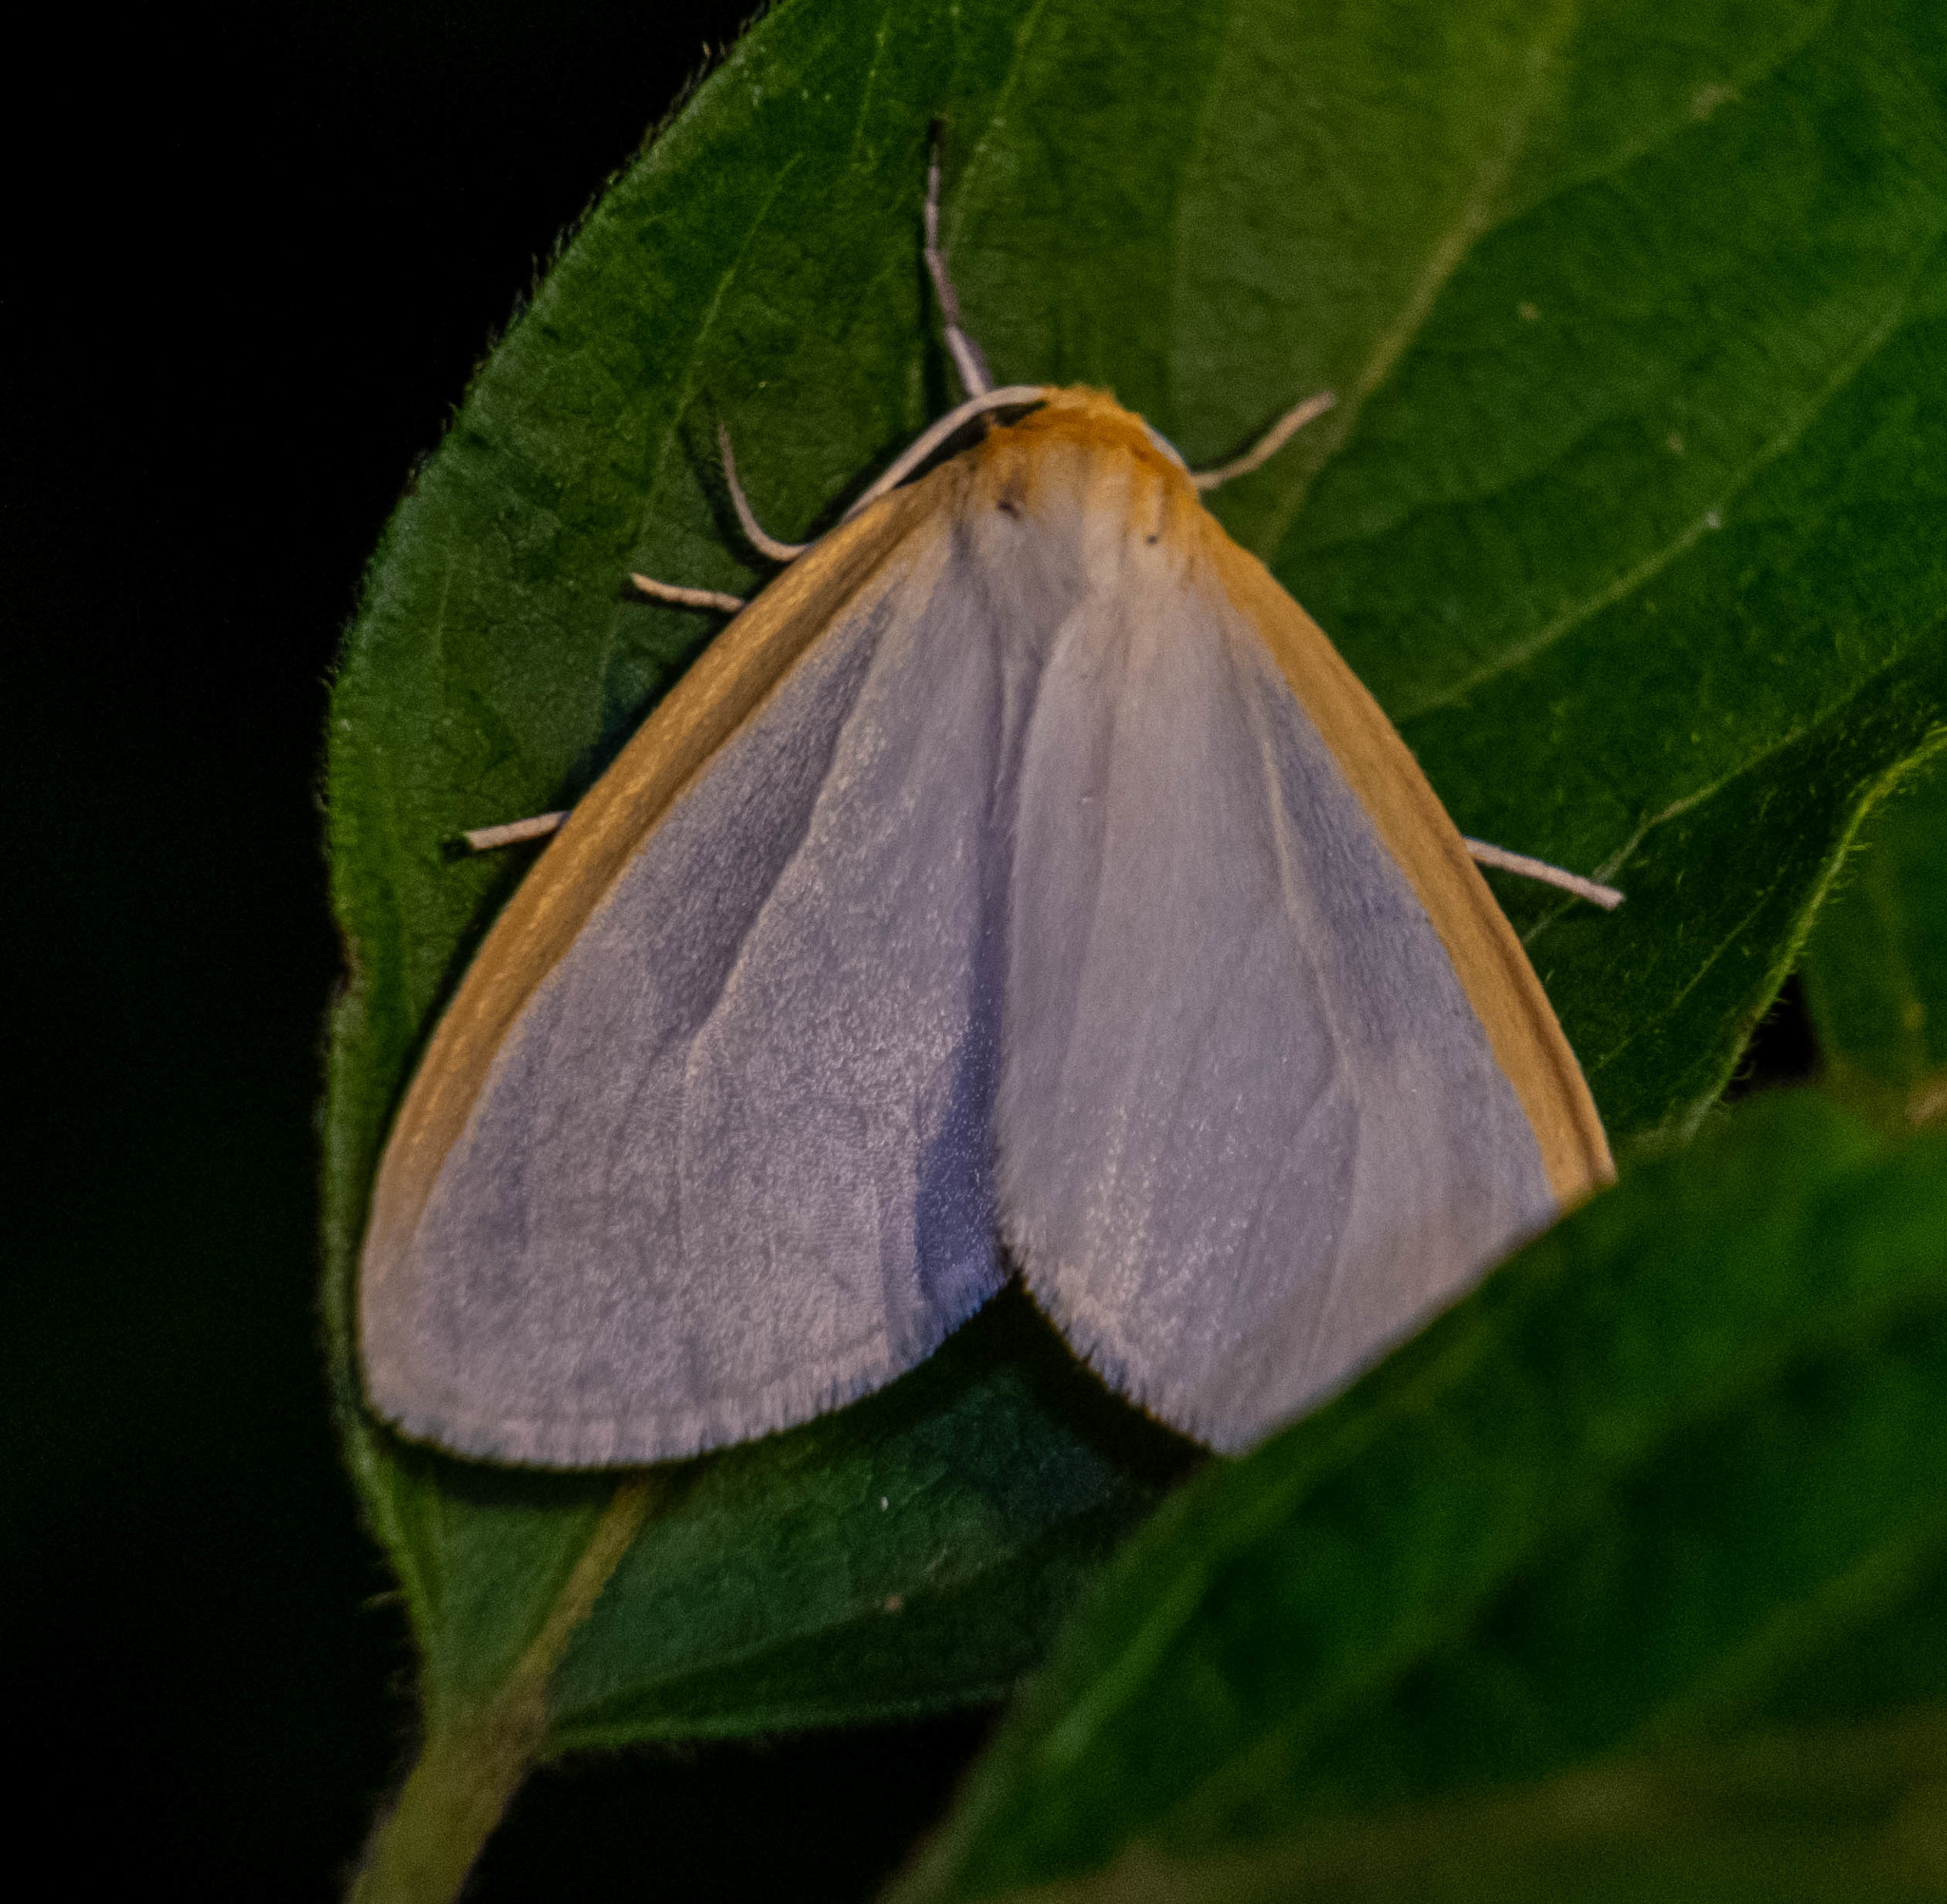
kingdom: Animalia
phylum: Arthropoda
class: Insecta
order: Lepidoptera
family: Erebidae
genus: Cycnia
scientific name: Cycnia tenera
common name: Delicate cycnia moth
